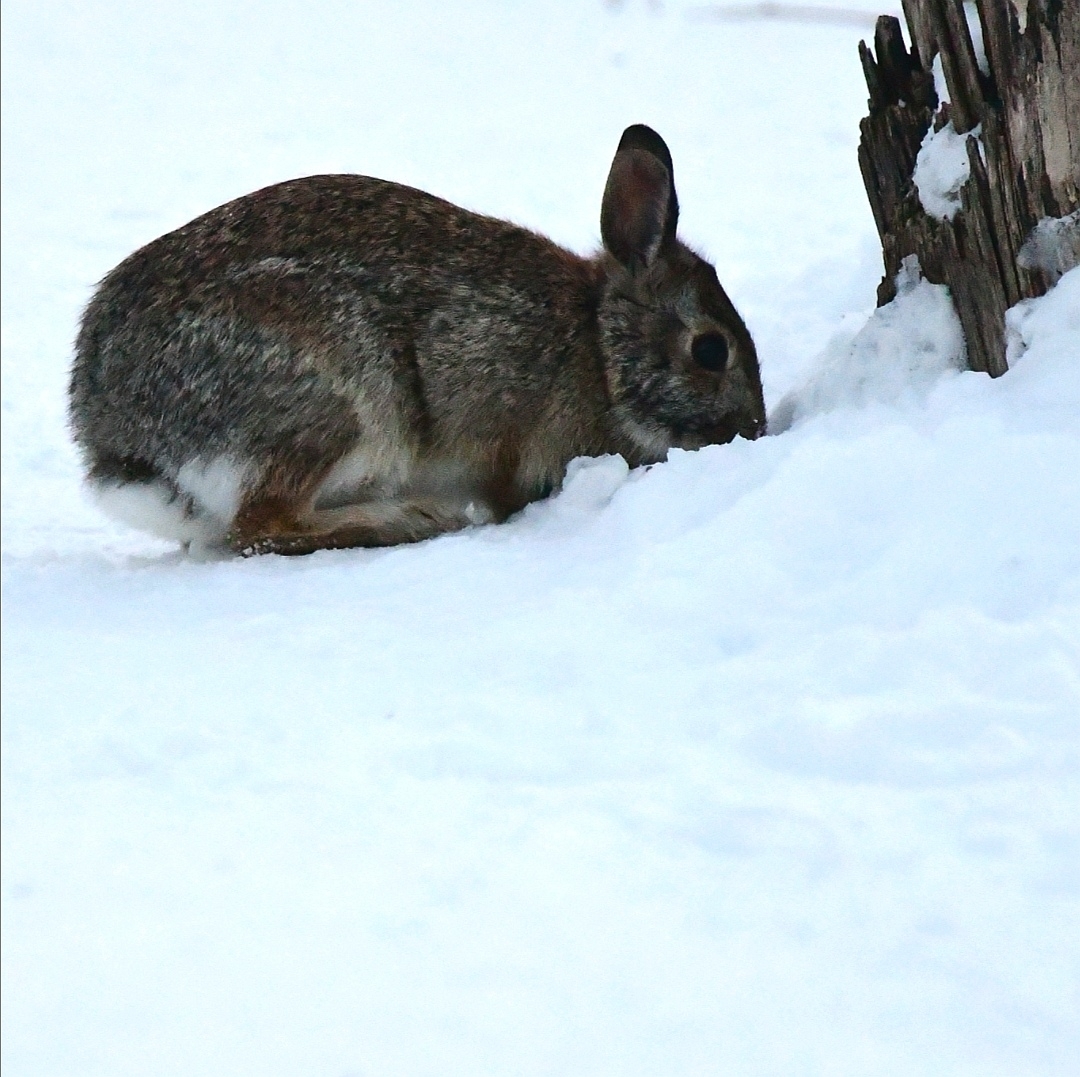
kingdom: Animalia
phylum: Chordata
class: Mammalia
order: Lagomorpha
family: Leporidae
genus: Sylvilagus
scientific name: Sylvilagus floridanus
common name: Eastern cottontail
